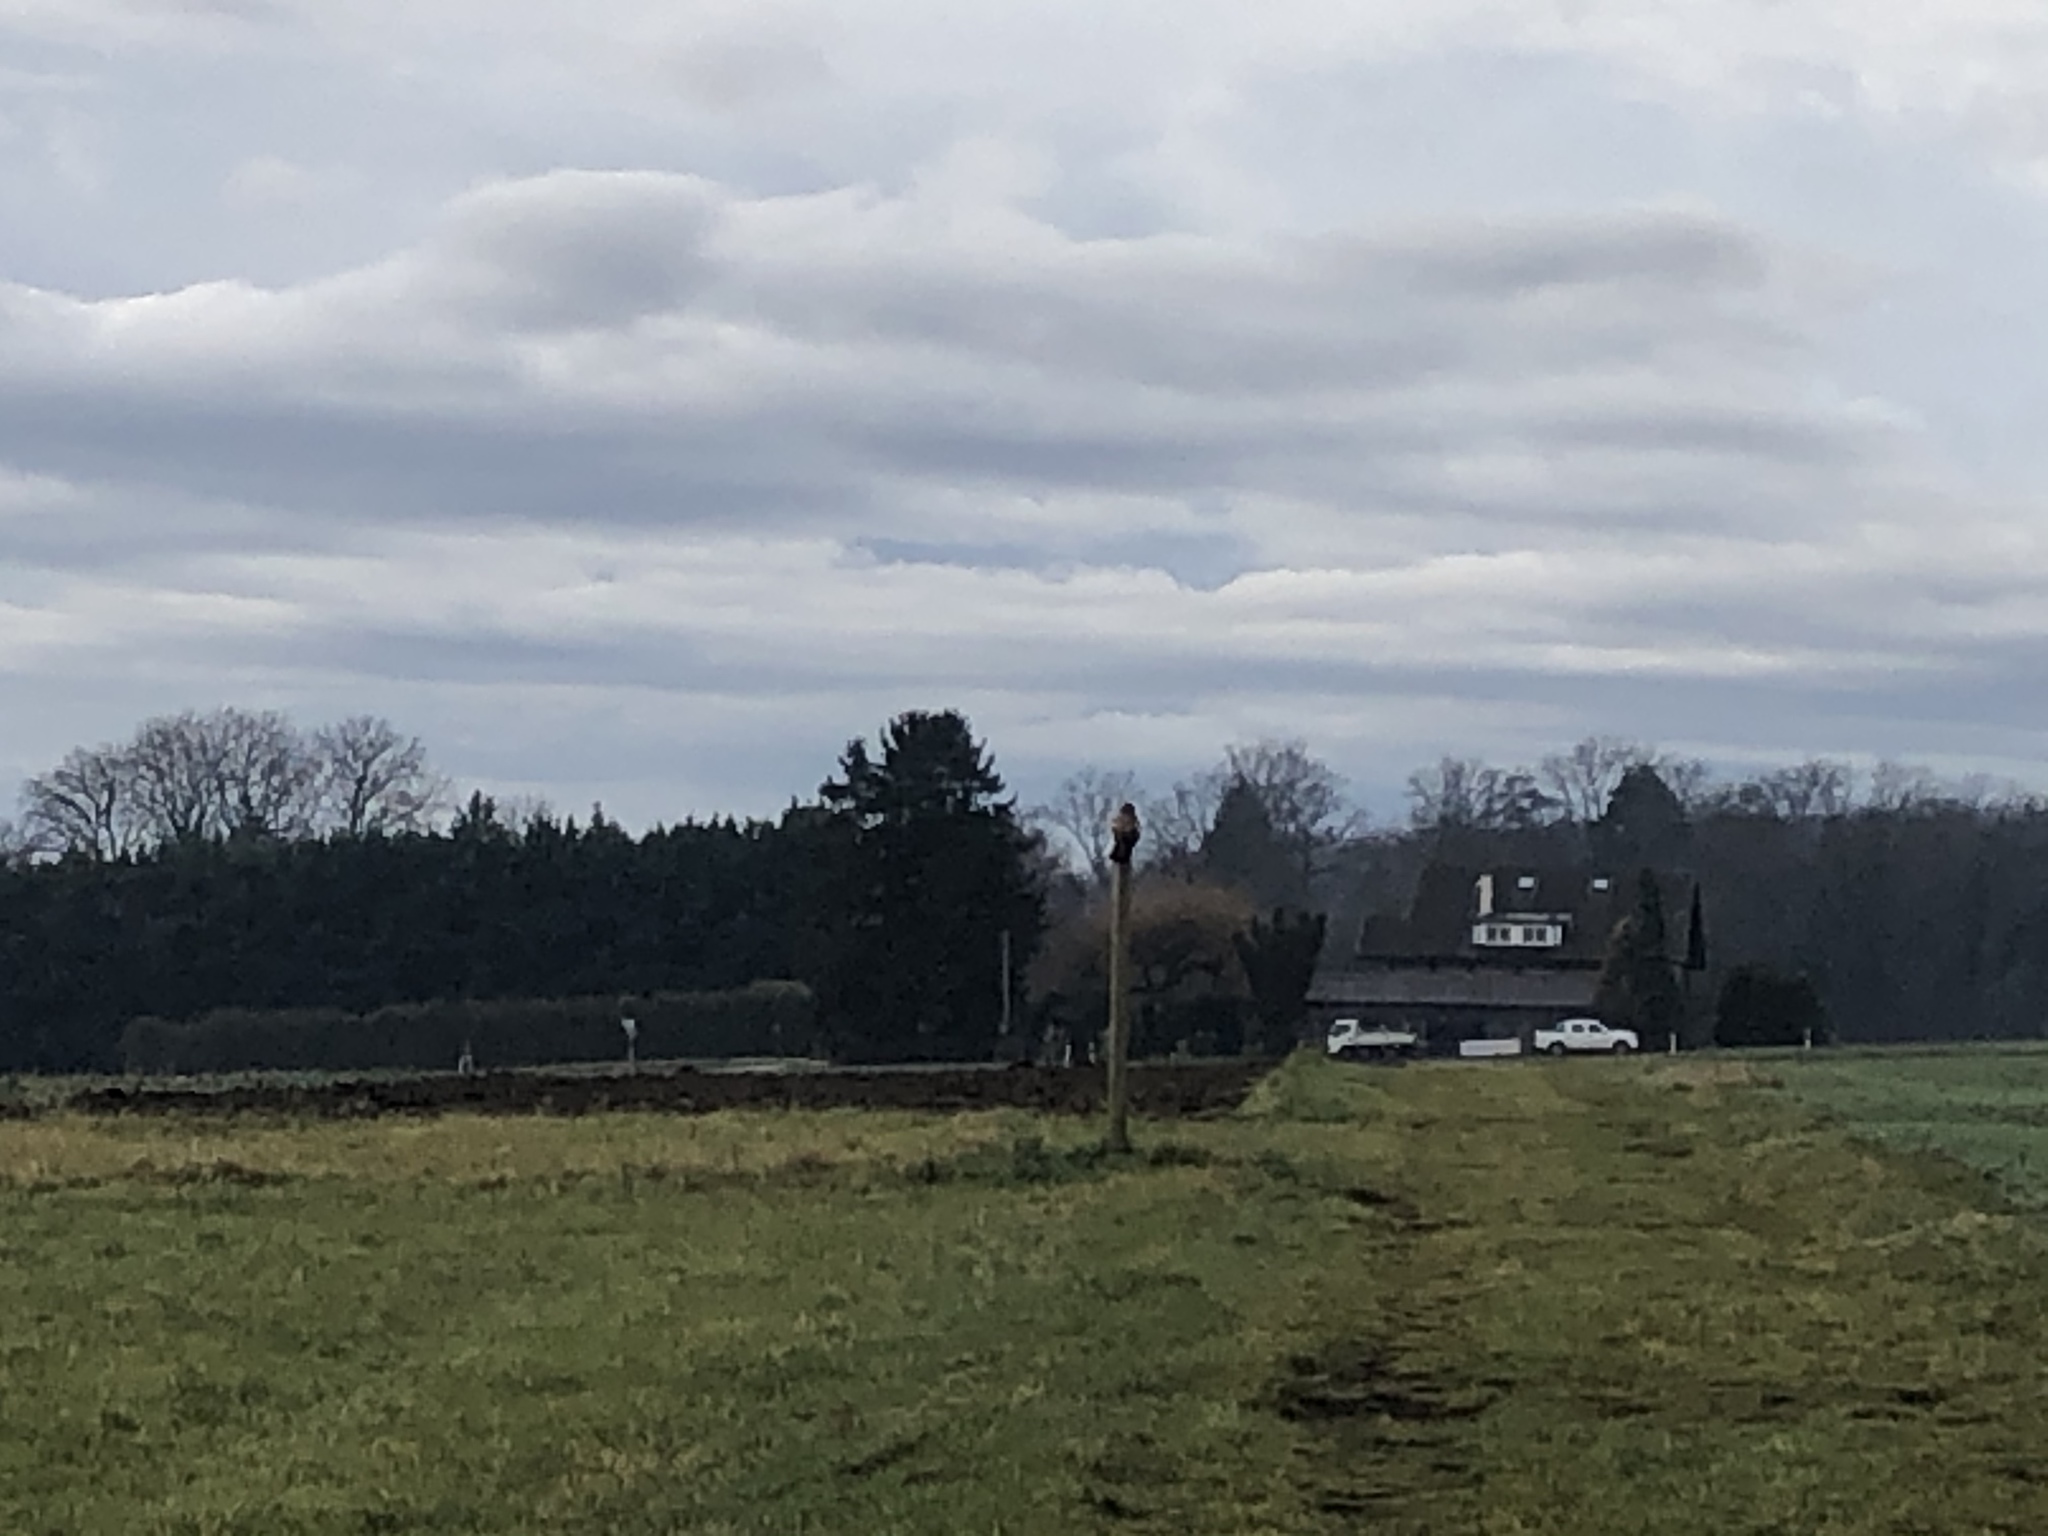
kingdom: Animalia
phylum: Chordata
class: Aves
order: Accipitriformes
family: Accipitridae
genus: Buteo
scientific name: Buteo buteo
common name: Common buzzard
